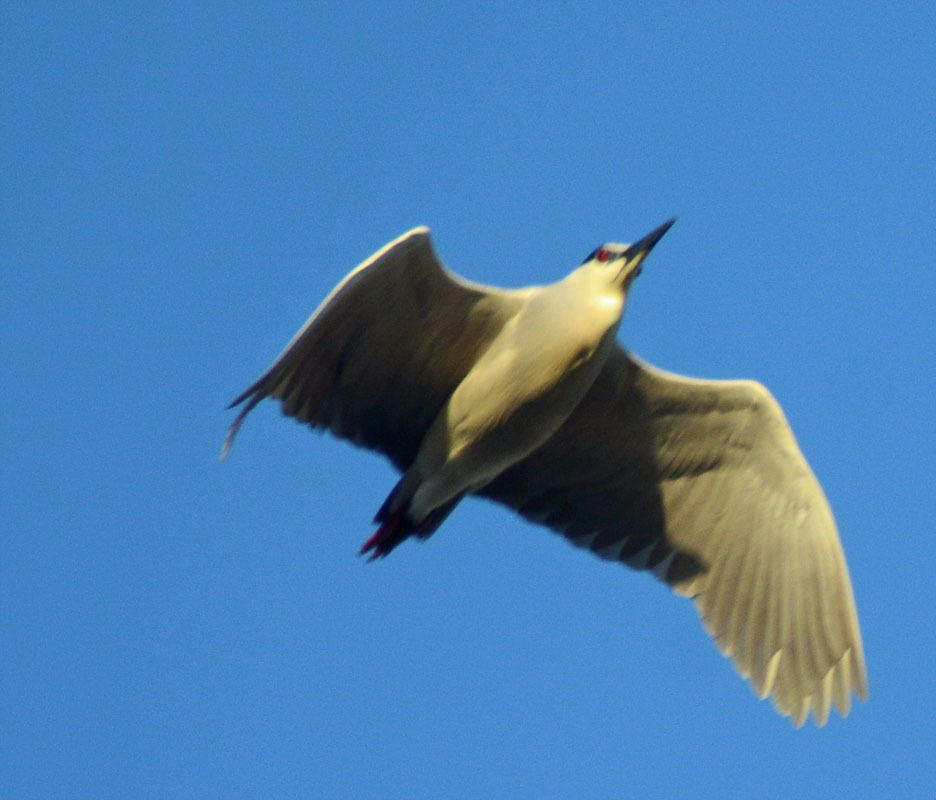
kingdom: Animalia
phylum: Chordata
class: Aves
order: Pelecaniformes
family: Ardeidae
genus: Nycticorax
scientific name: Nycticorax nycticorax
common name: Black-crowned night heron
